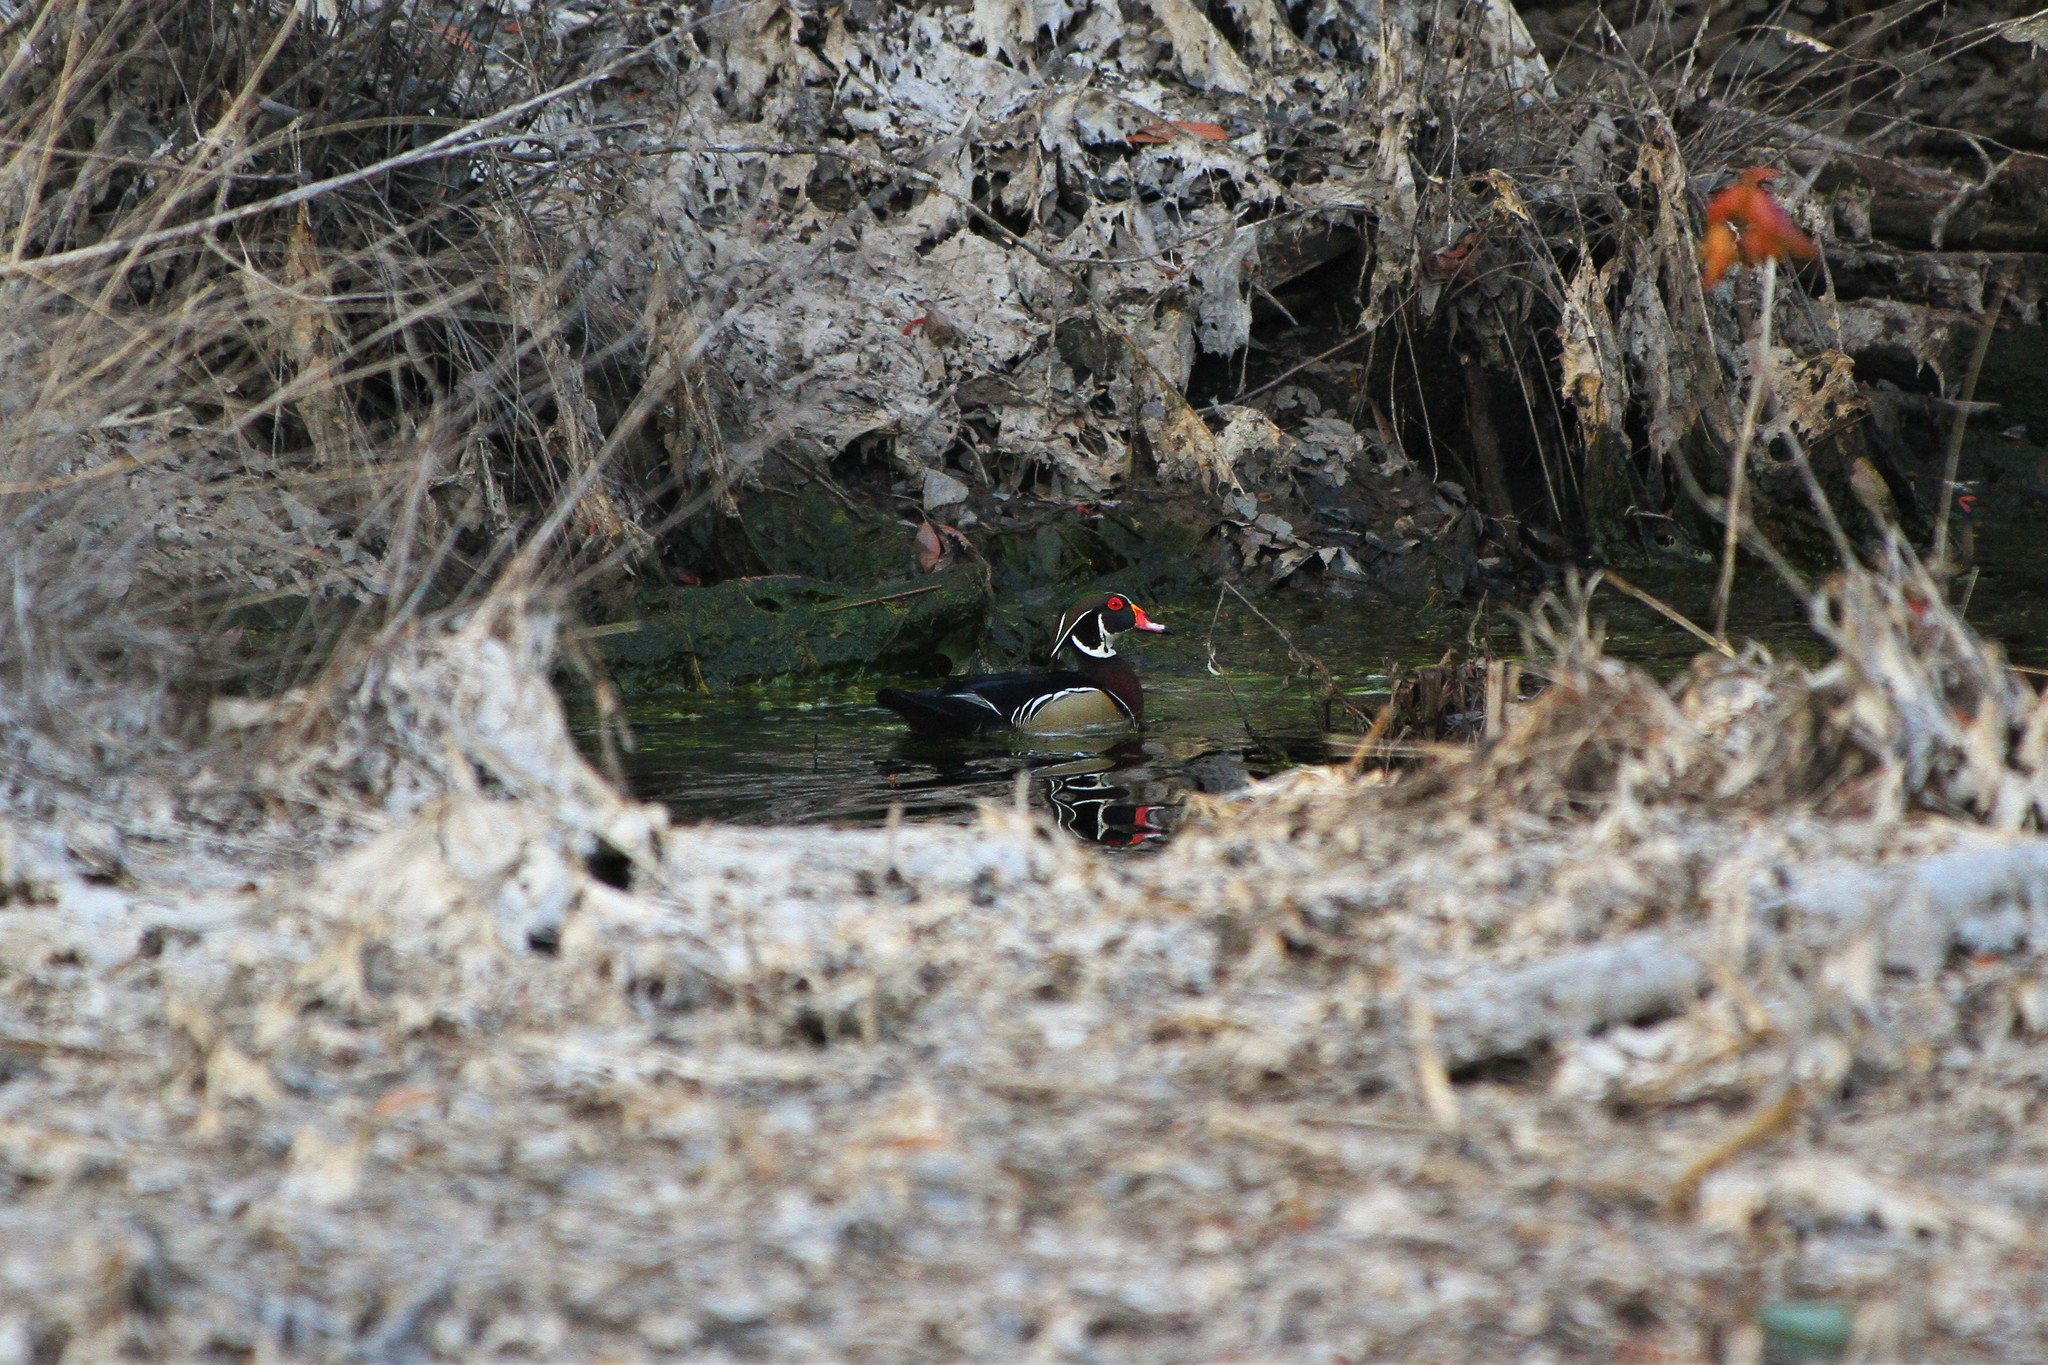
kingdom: Animalia
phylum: Chordata
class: Aves
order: Anseriformes
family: Anatidae
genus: Aix
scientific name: Aix sponsa
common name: Wood duck
